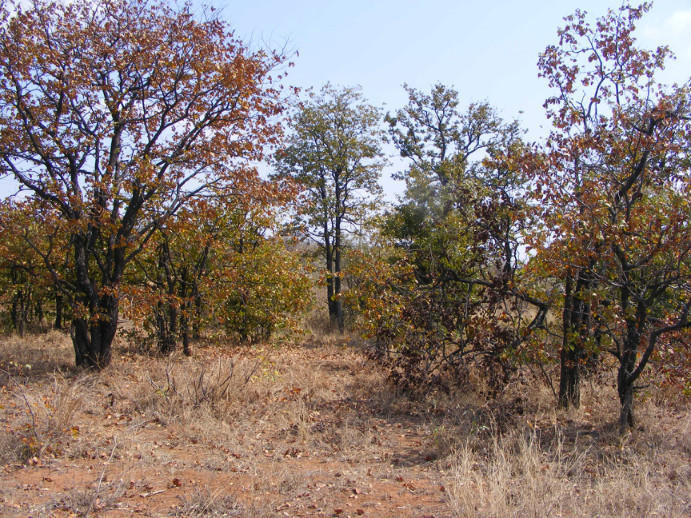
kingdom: Plantae
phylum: Tracheophyta
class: Magnoliopsida
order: Fabales
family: Fabaceae
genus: Colophospermum
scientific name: Colophospermum mopane
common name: Mopane
